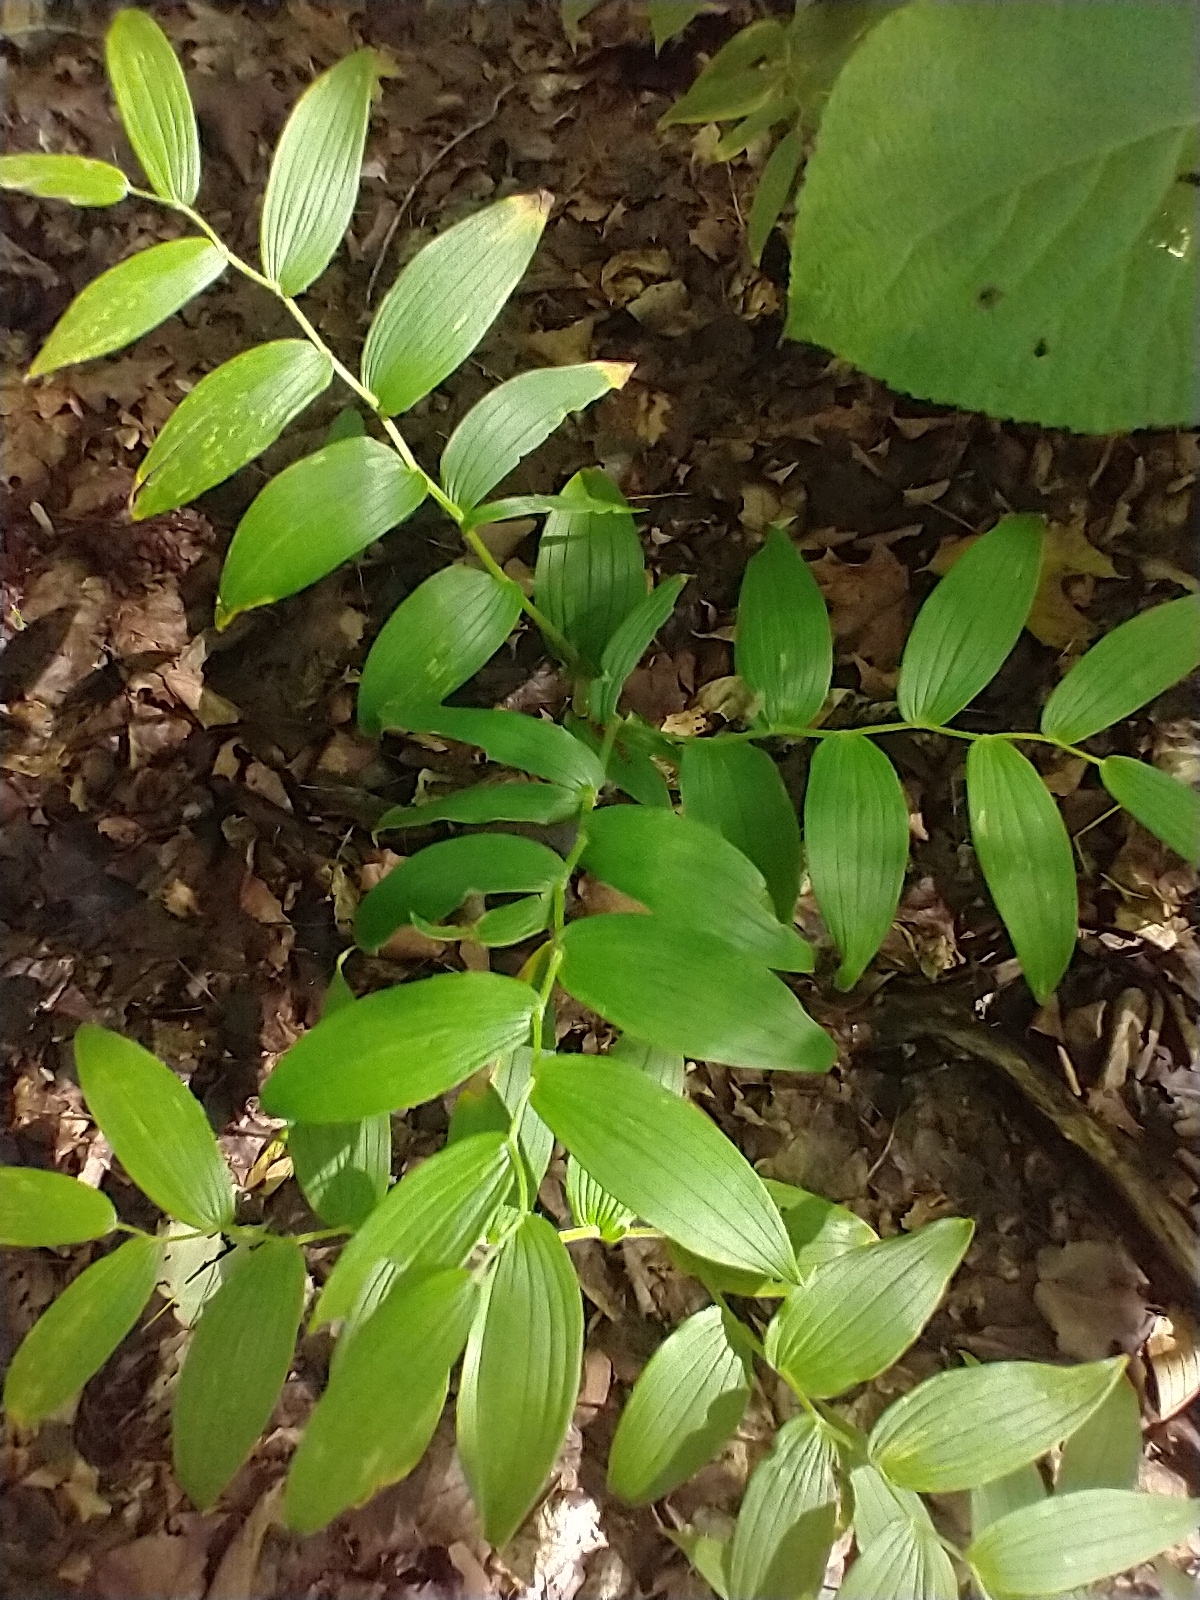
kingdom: Plantae
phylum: Tracheophyta
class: Liliopsida
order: Liliales
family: Liliaceae
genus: Streptopus
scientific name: Streptopus lanceolatus
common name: Rose mandarin
